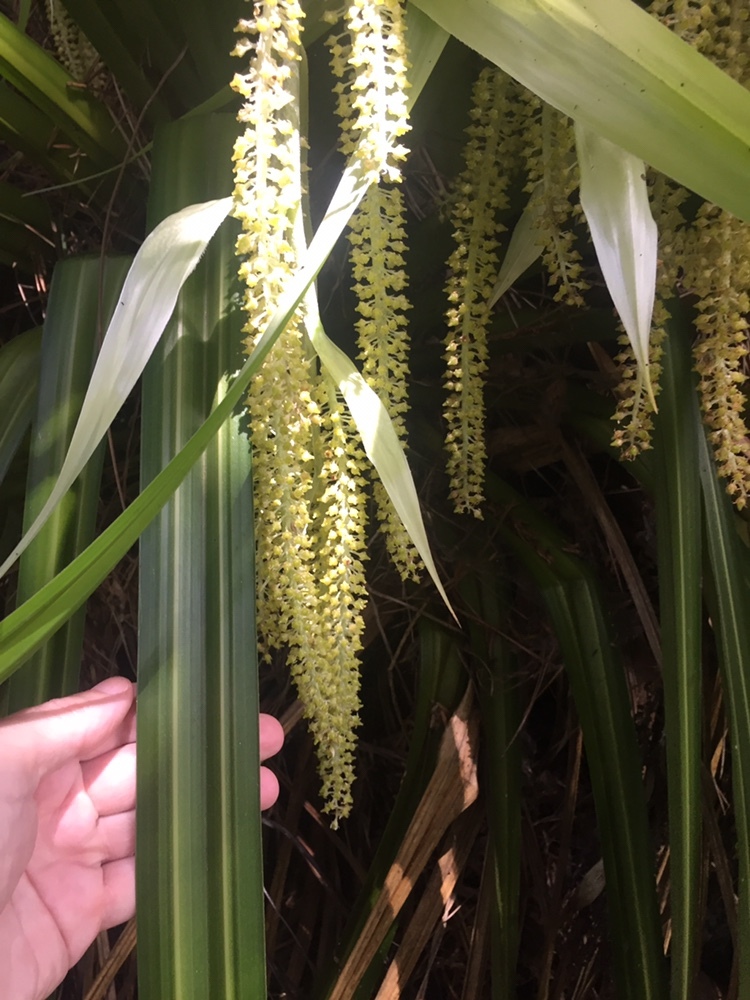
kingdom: Plantae
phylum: Tracheophyta
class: Liliopsida
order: Asparagales
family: Asteliaceae
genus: Astelia
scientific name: Astelia hastata
